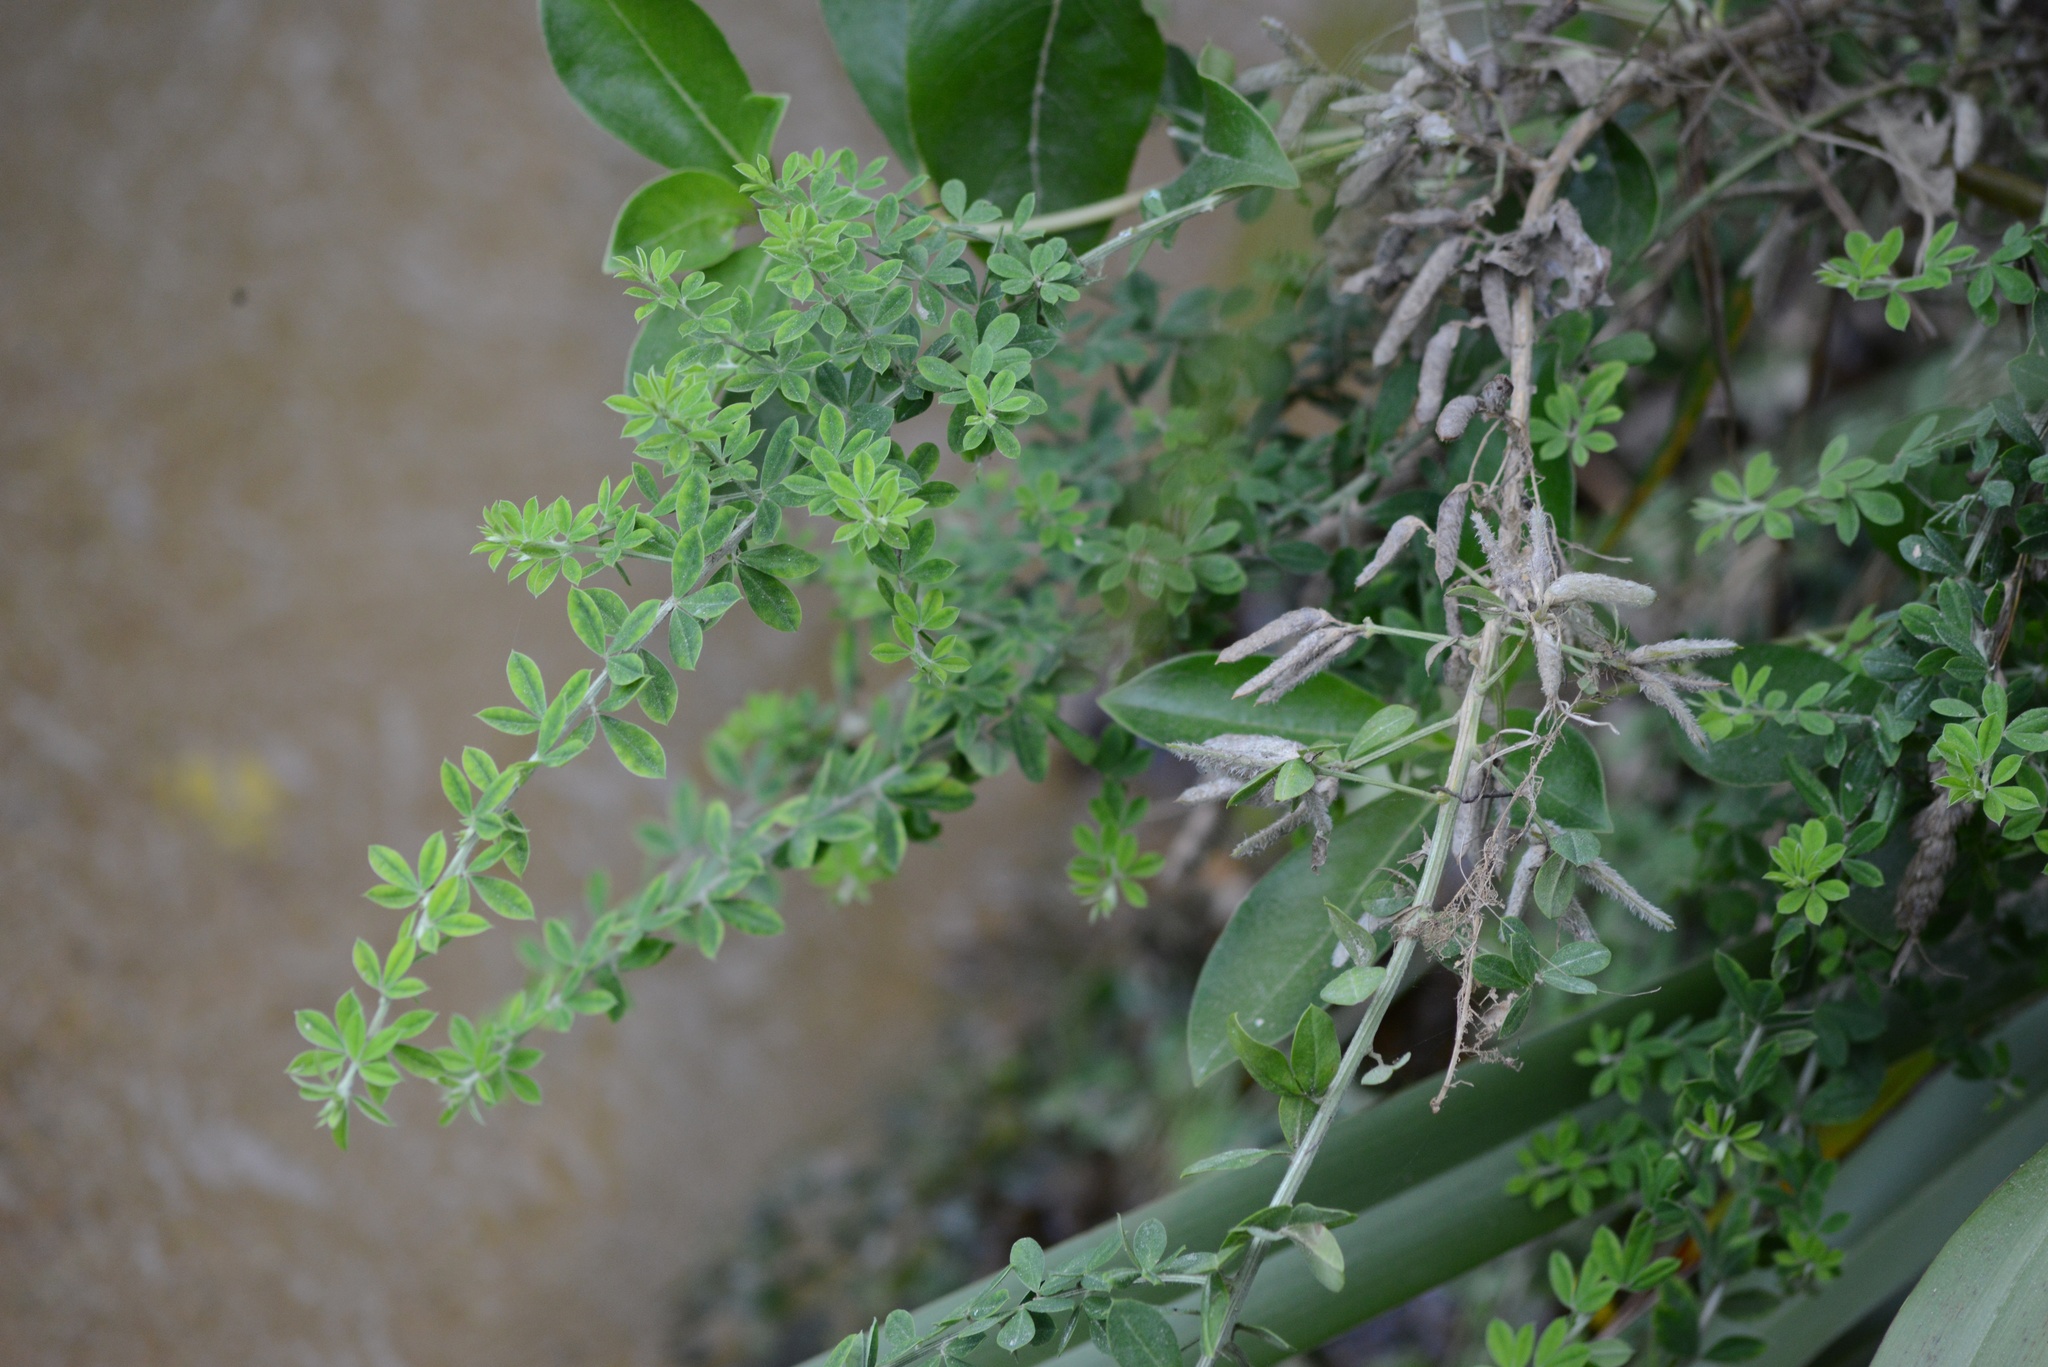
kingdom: Plantae
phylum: Tracheophyta
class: Magnoliopsida
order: Fabales
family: Fabaceae
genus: Chamaecytisus
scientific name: Chamaecytisus prolifer
